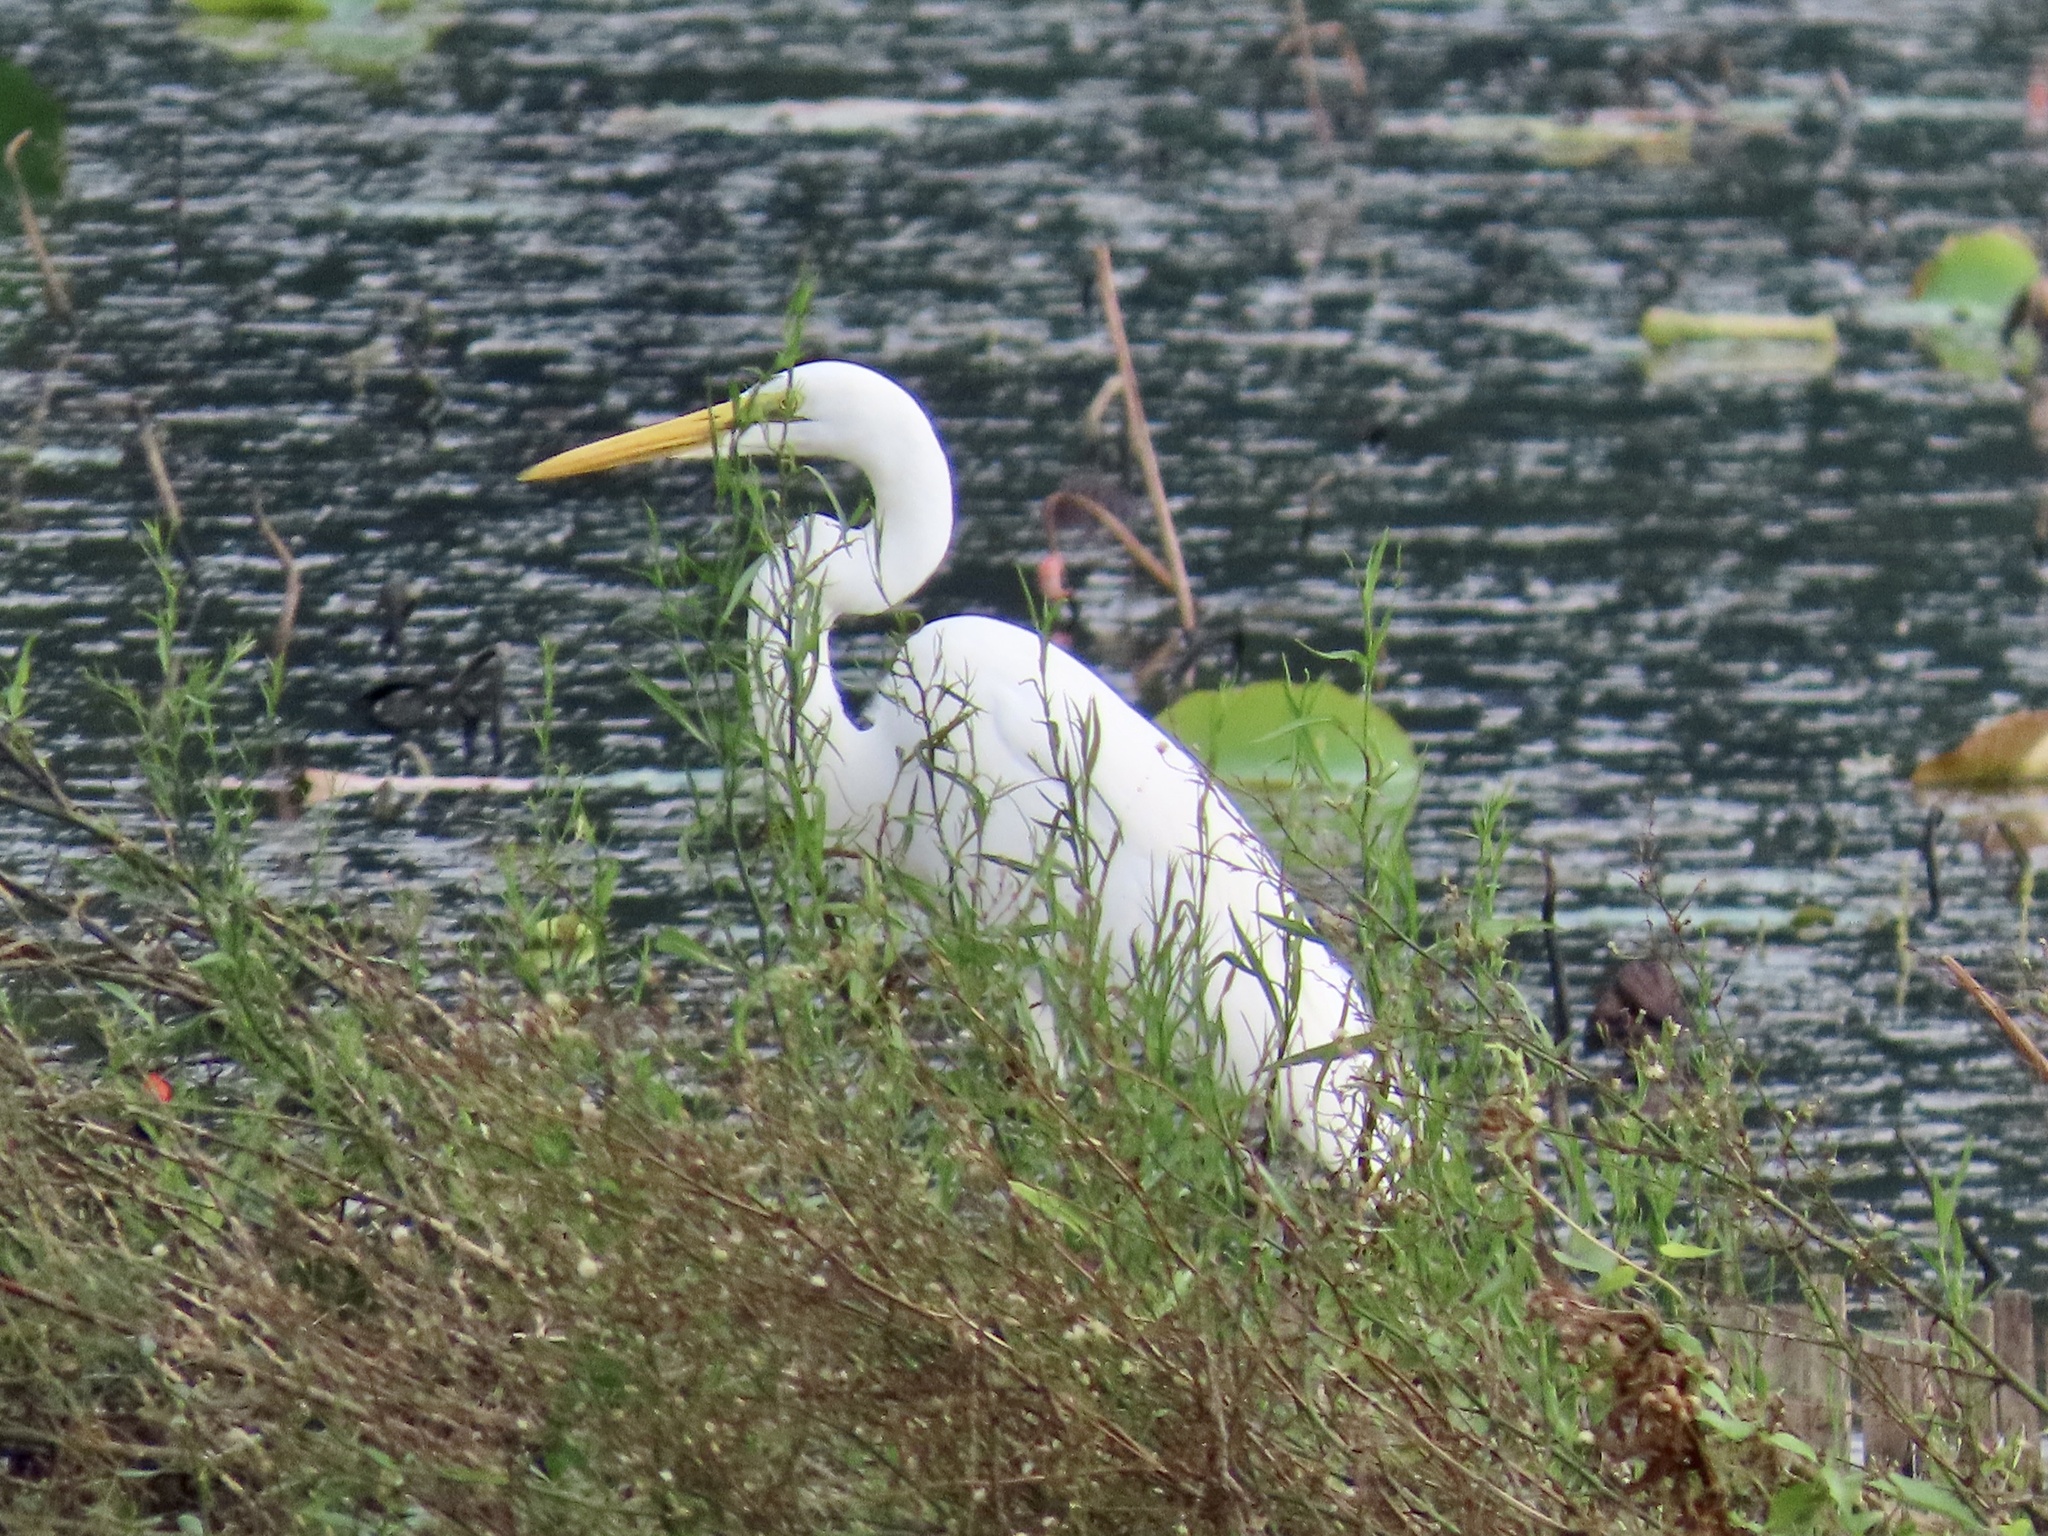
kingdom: Animalia
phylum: Chordata
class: Aves
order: Pelecaniformes
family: Ardeidae
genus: Ardea
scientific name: Ardea alba
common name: Great egret
